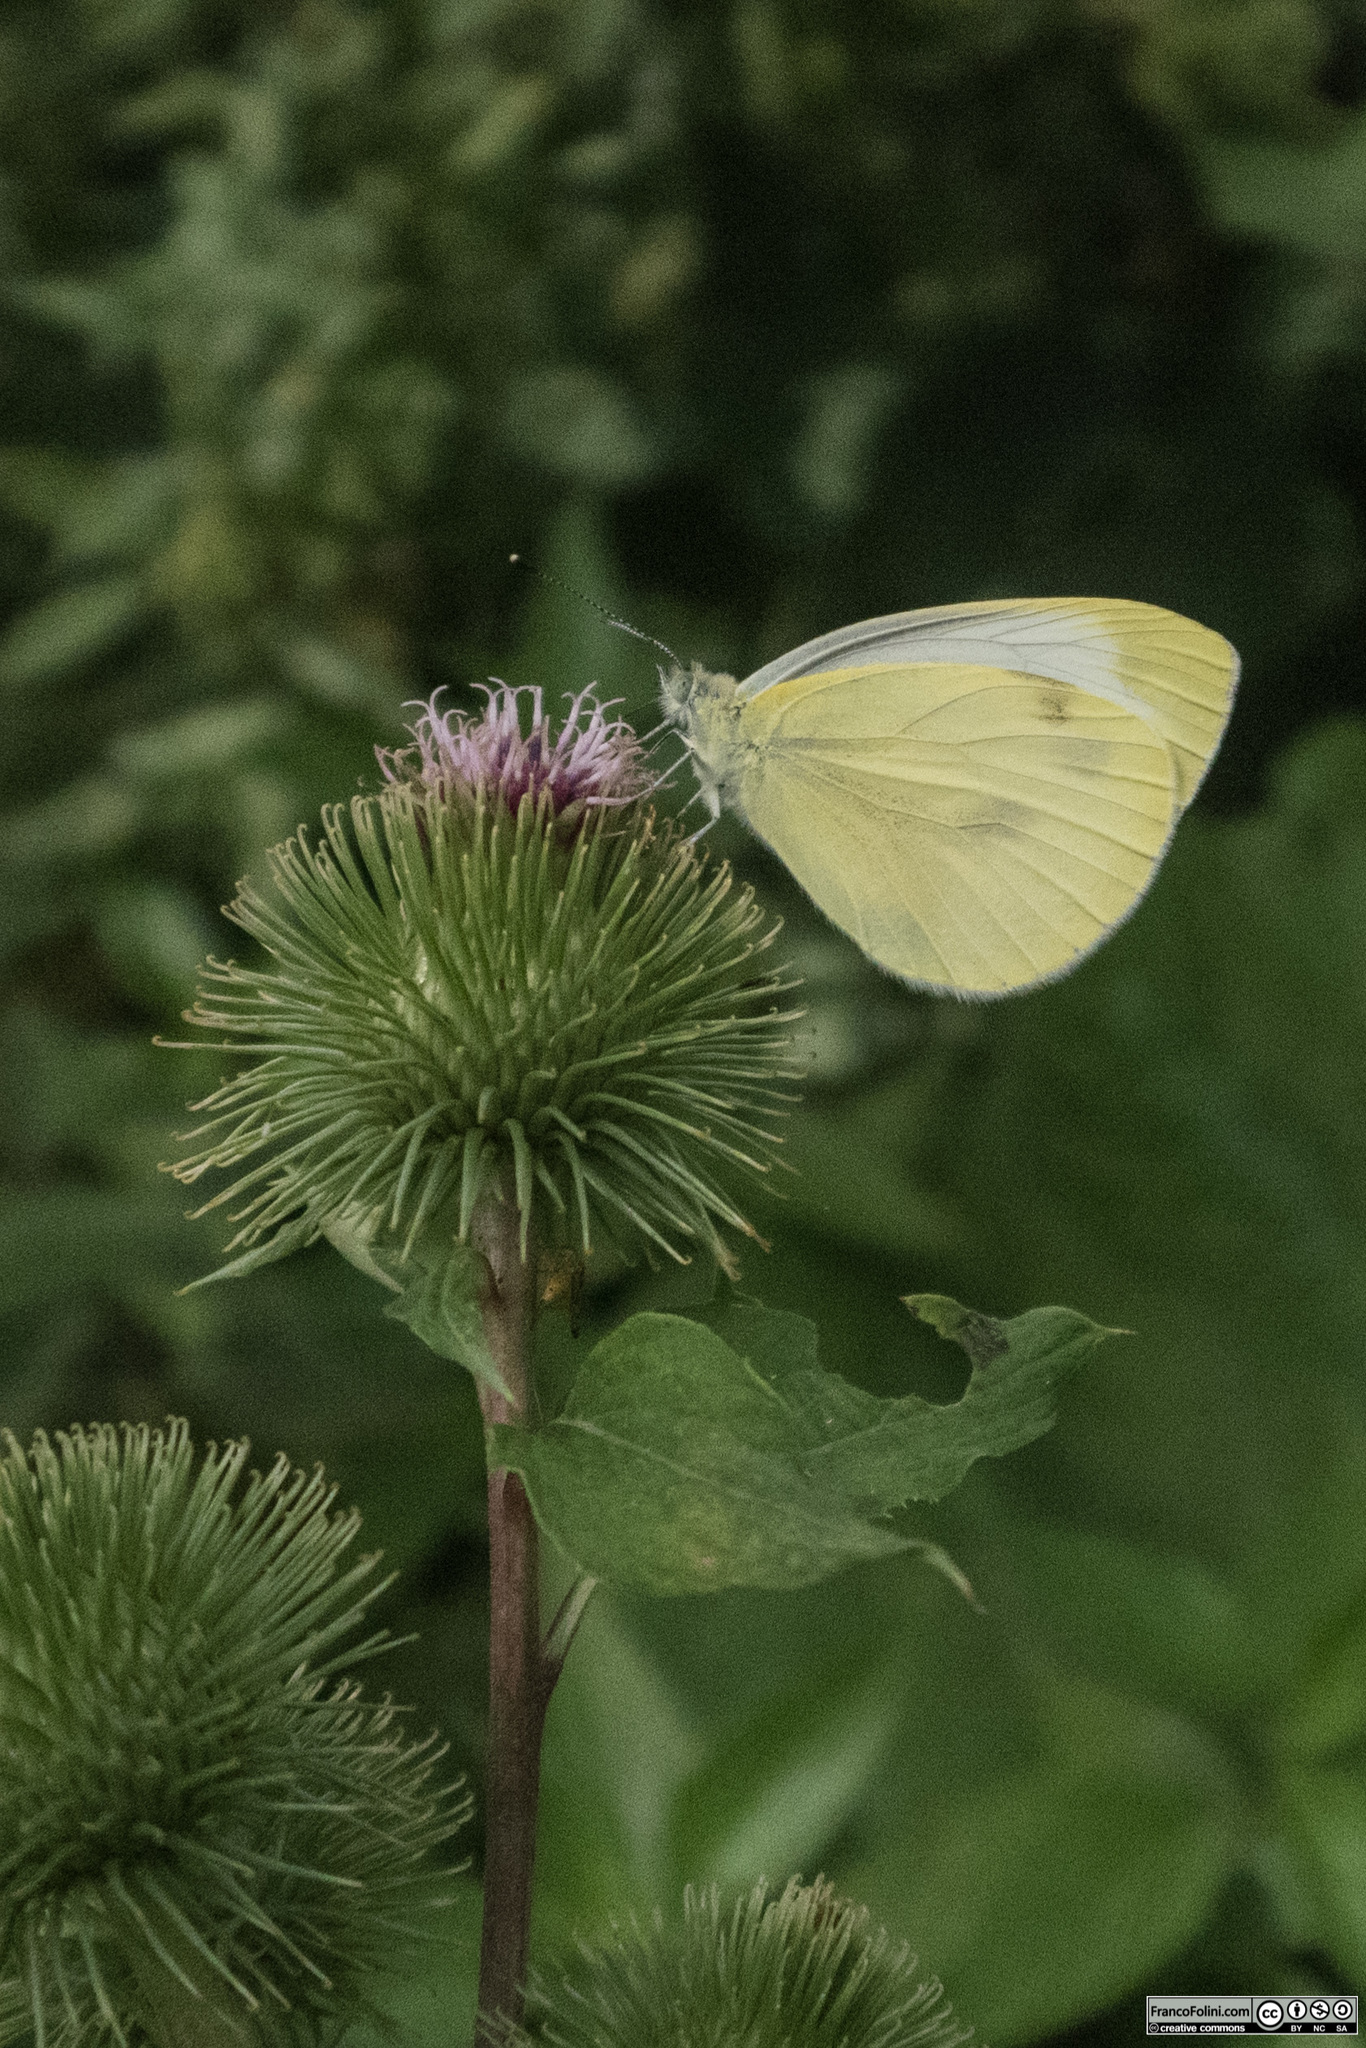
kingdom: Animalia
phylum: Arthropoda
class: Insecta
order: Lepidoptera
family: Pieridae
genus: Pieris
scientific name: Pieris rapae
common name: Small white
